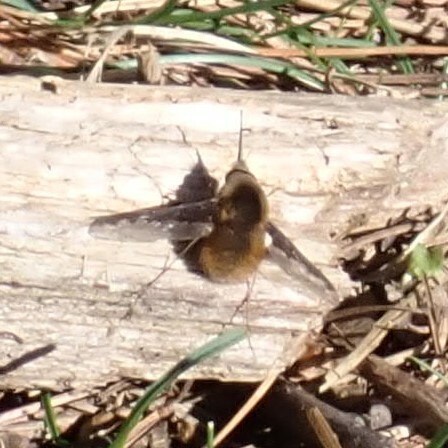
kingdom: Animalia
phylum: Arthropoda
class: Insecta
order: Diptera
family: Bombyliidae
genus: Bombylius
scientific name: Bombylius major
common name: Bee fly
